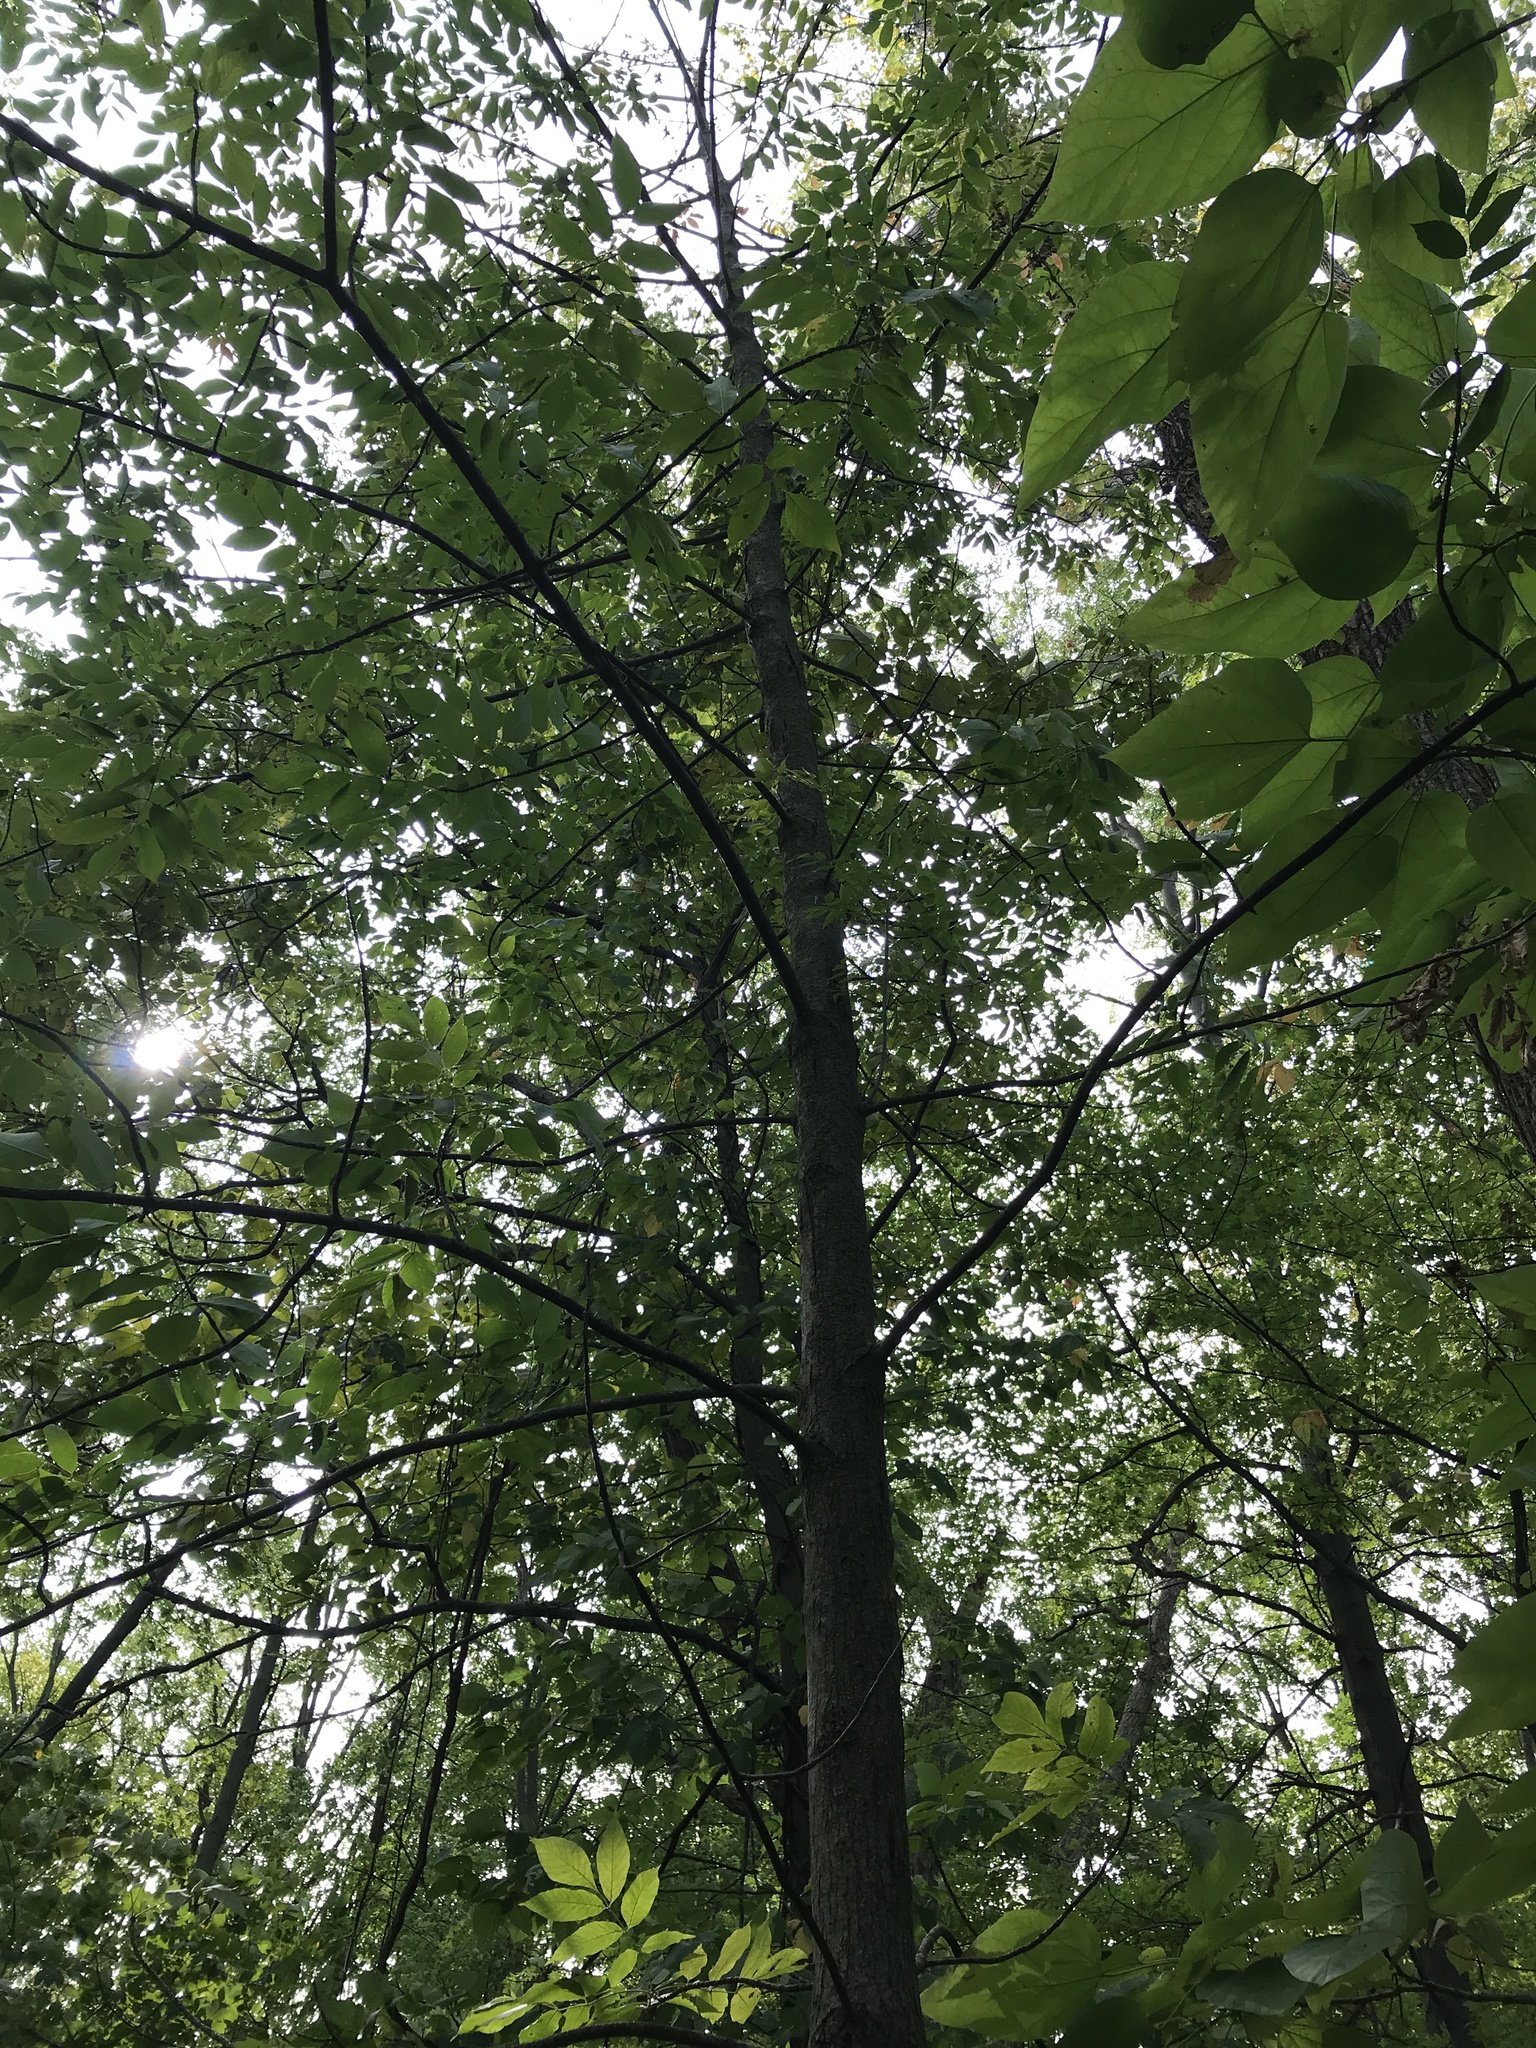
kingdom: Plantae
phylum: Tracheophyta
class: Magnoliopsida
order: Lamiales
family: Oleaceae
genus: Fraxinus
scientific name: Fraxinus pennsylvanica
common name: Green ash
